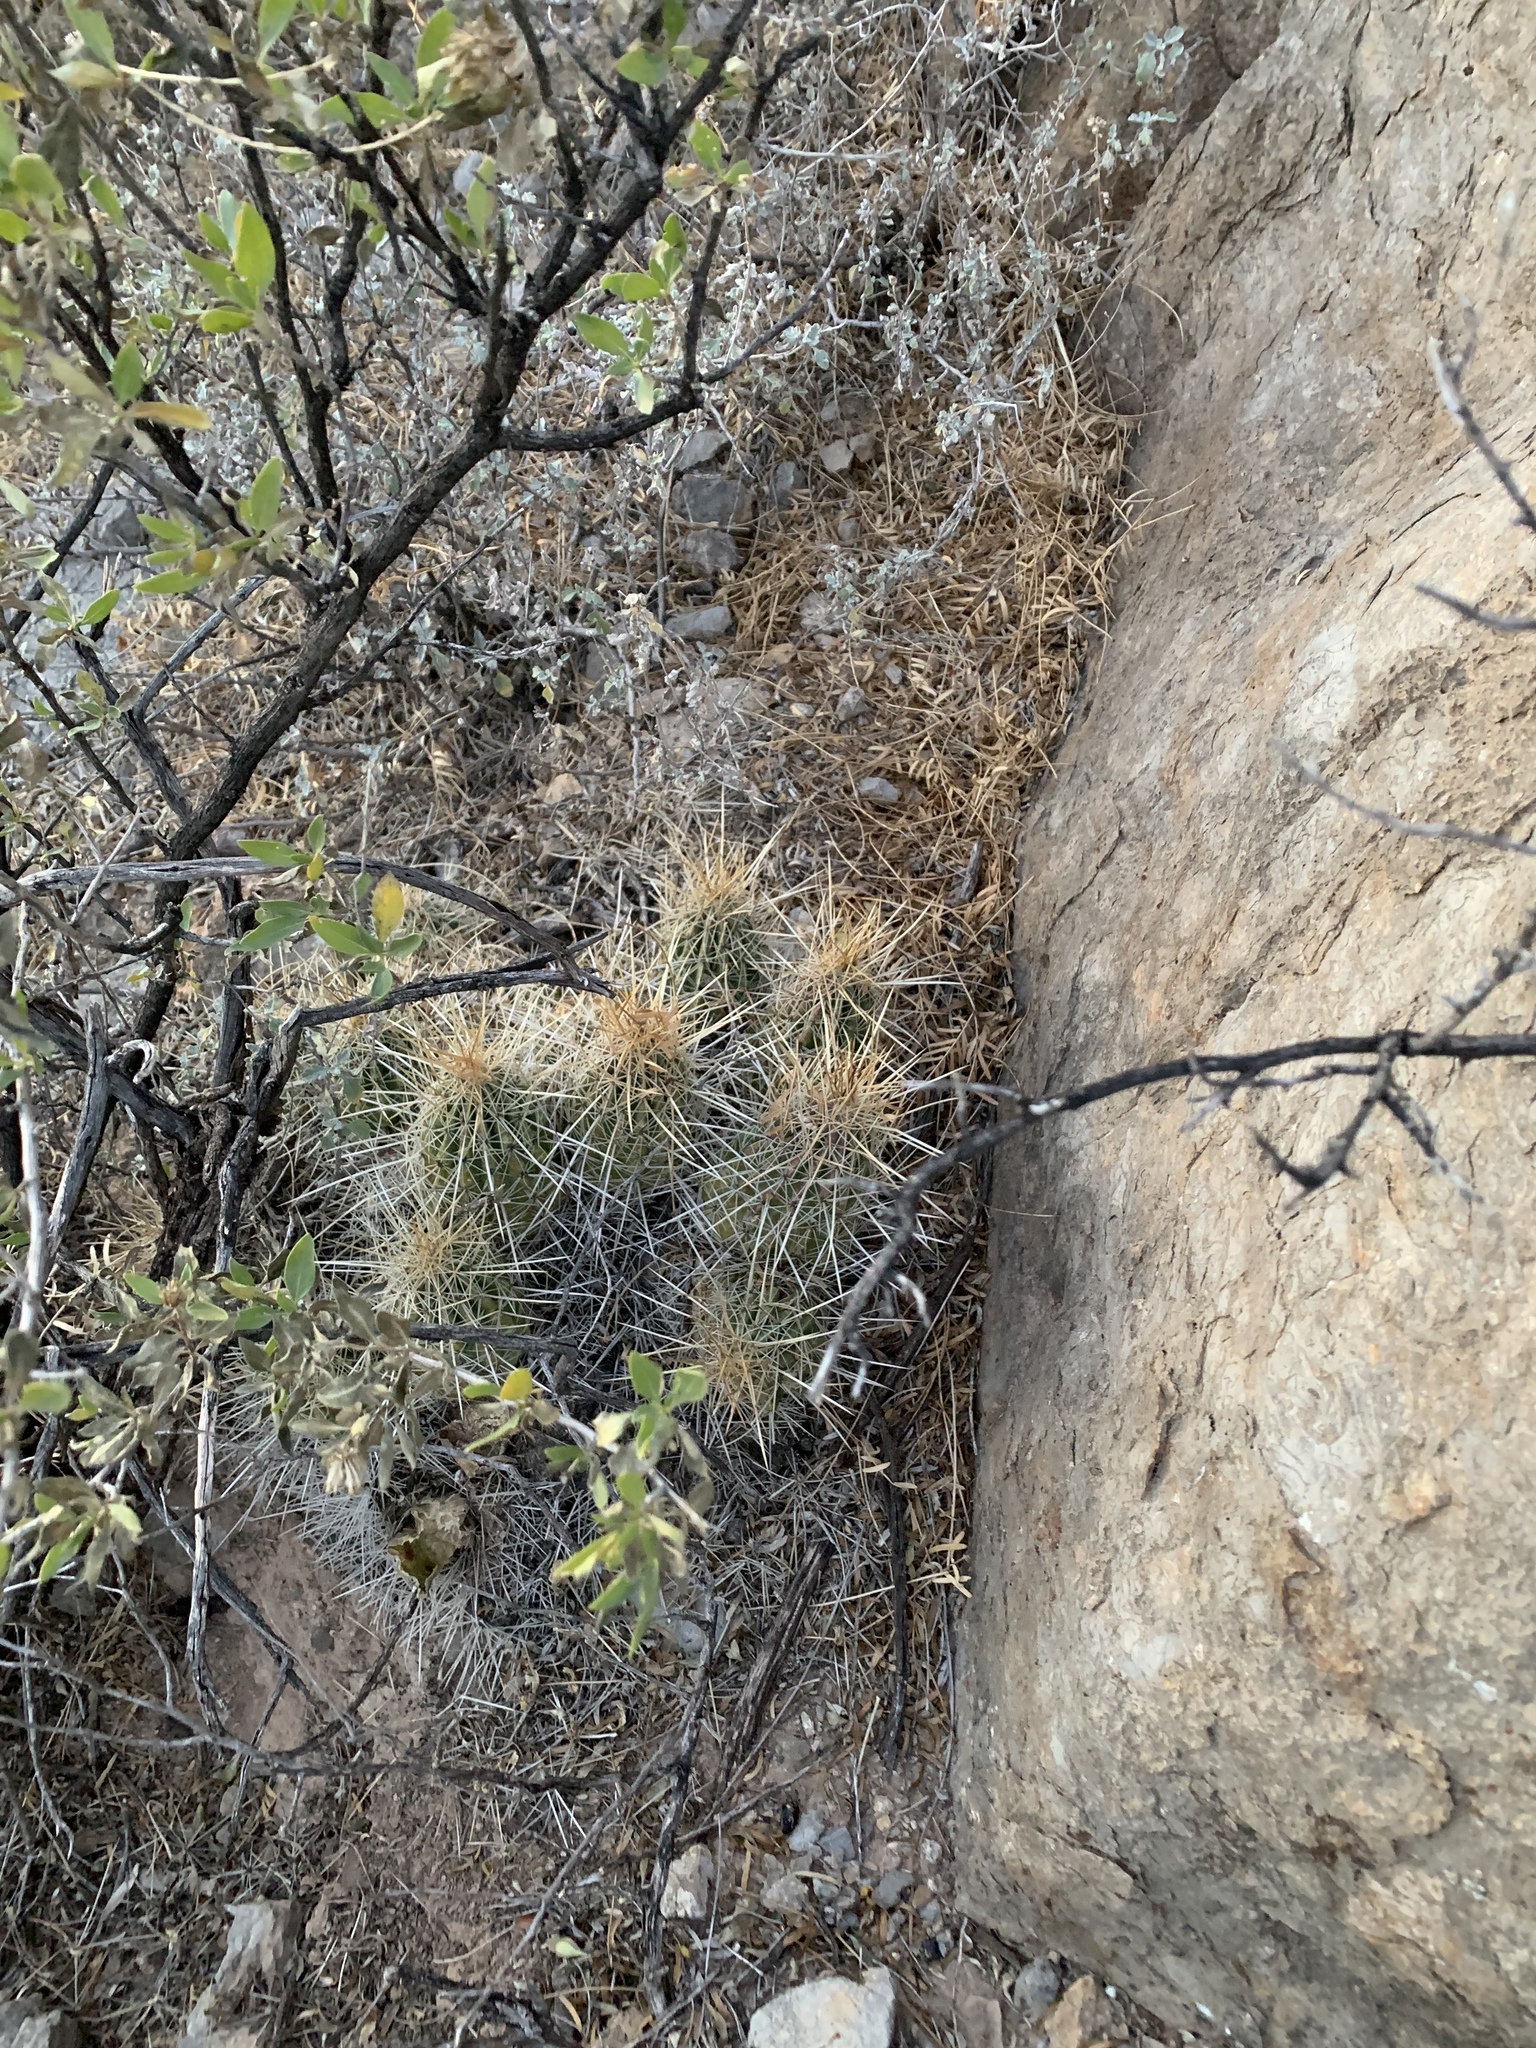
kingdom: Plantae
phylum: Tracheophyta
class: Magnoliopsida
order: Caryophyllales
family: Cactaceae
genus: Echinocereus
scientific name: Echinocereus stramineus
